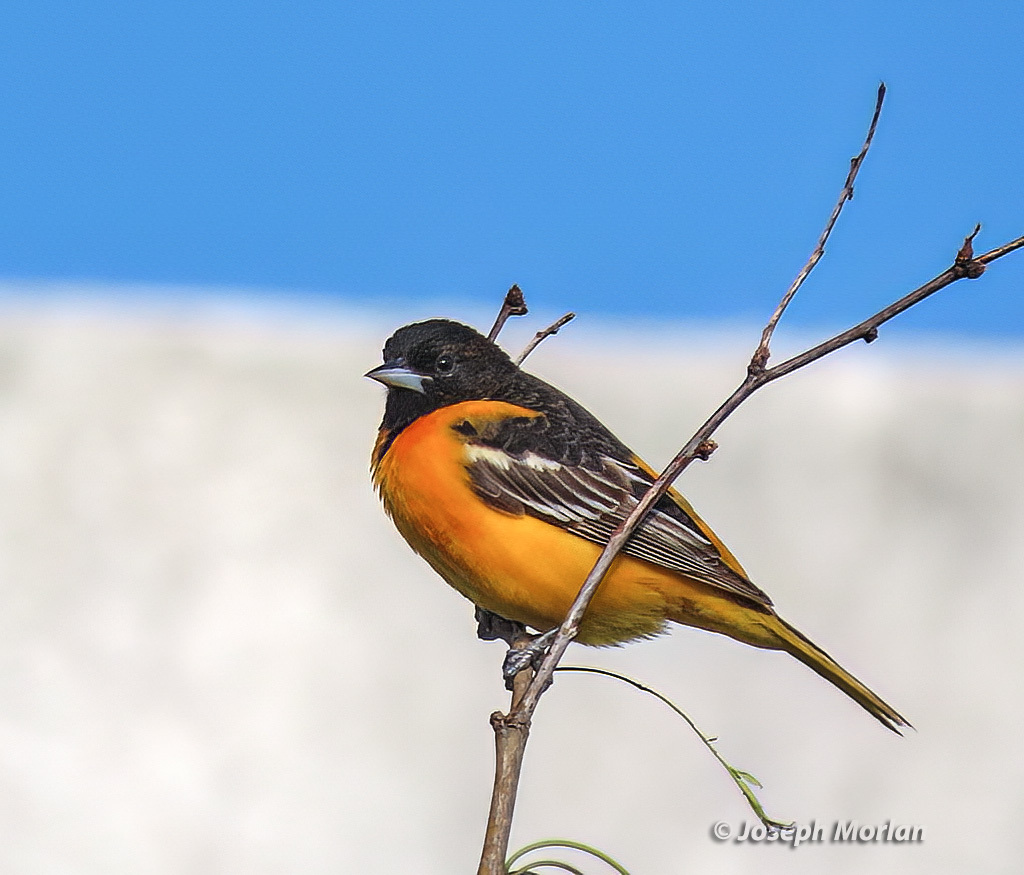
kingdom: Animalia
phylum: Chordata
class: Aves
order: Passeriformes
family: Icteridae
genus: Icterus
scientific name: Icterus galbula
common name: Baltimore oriole
